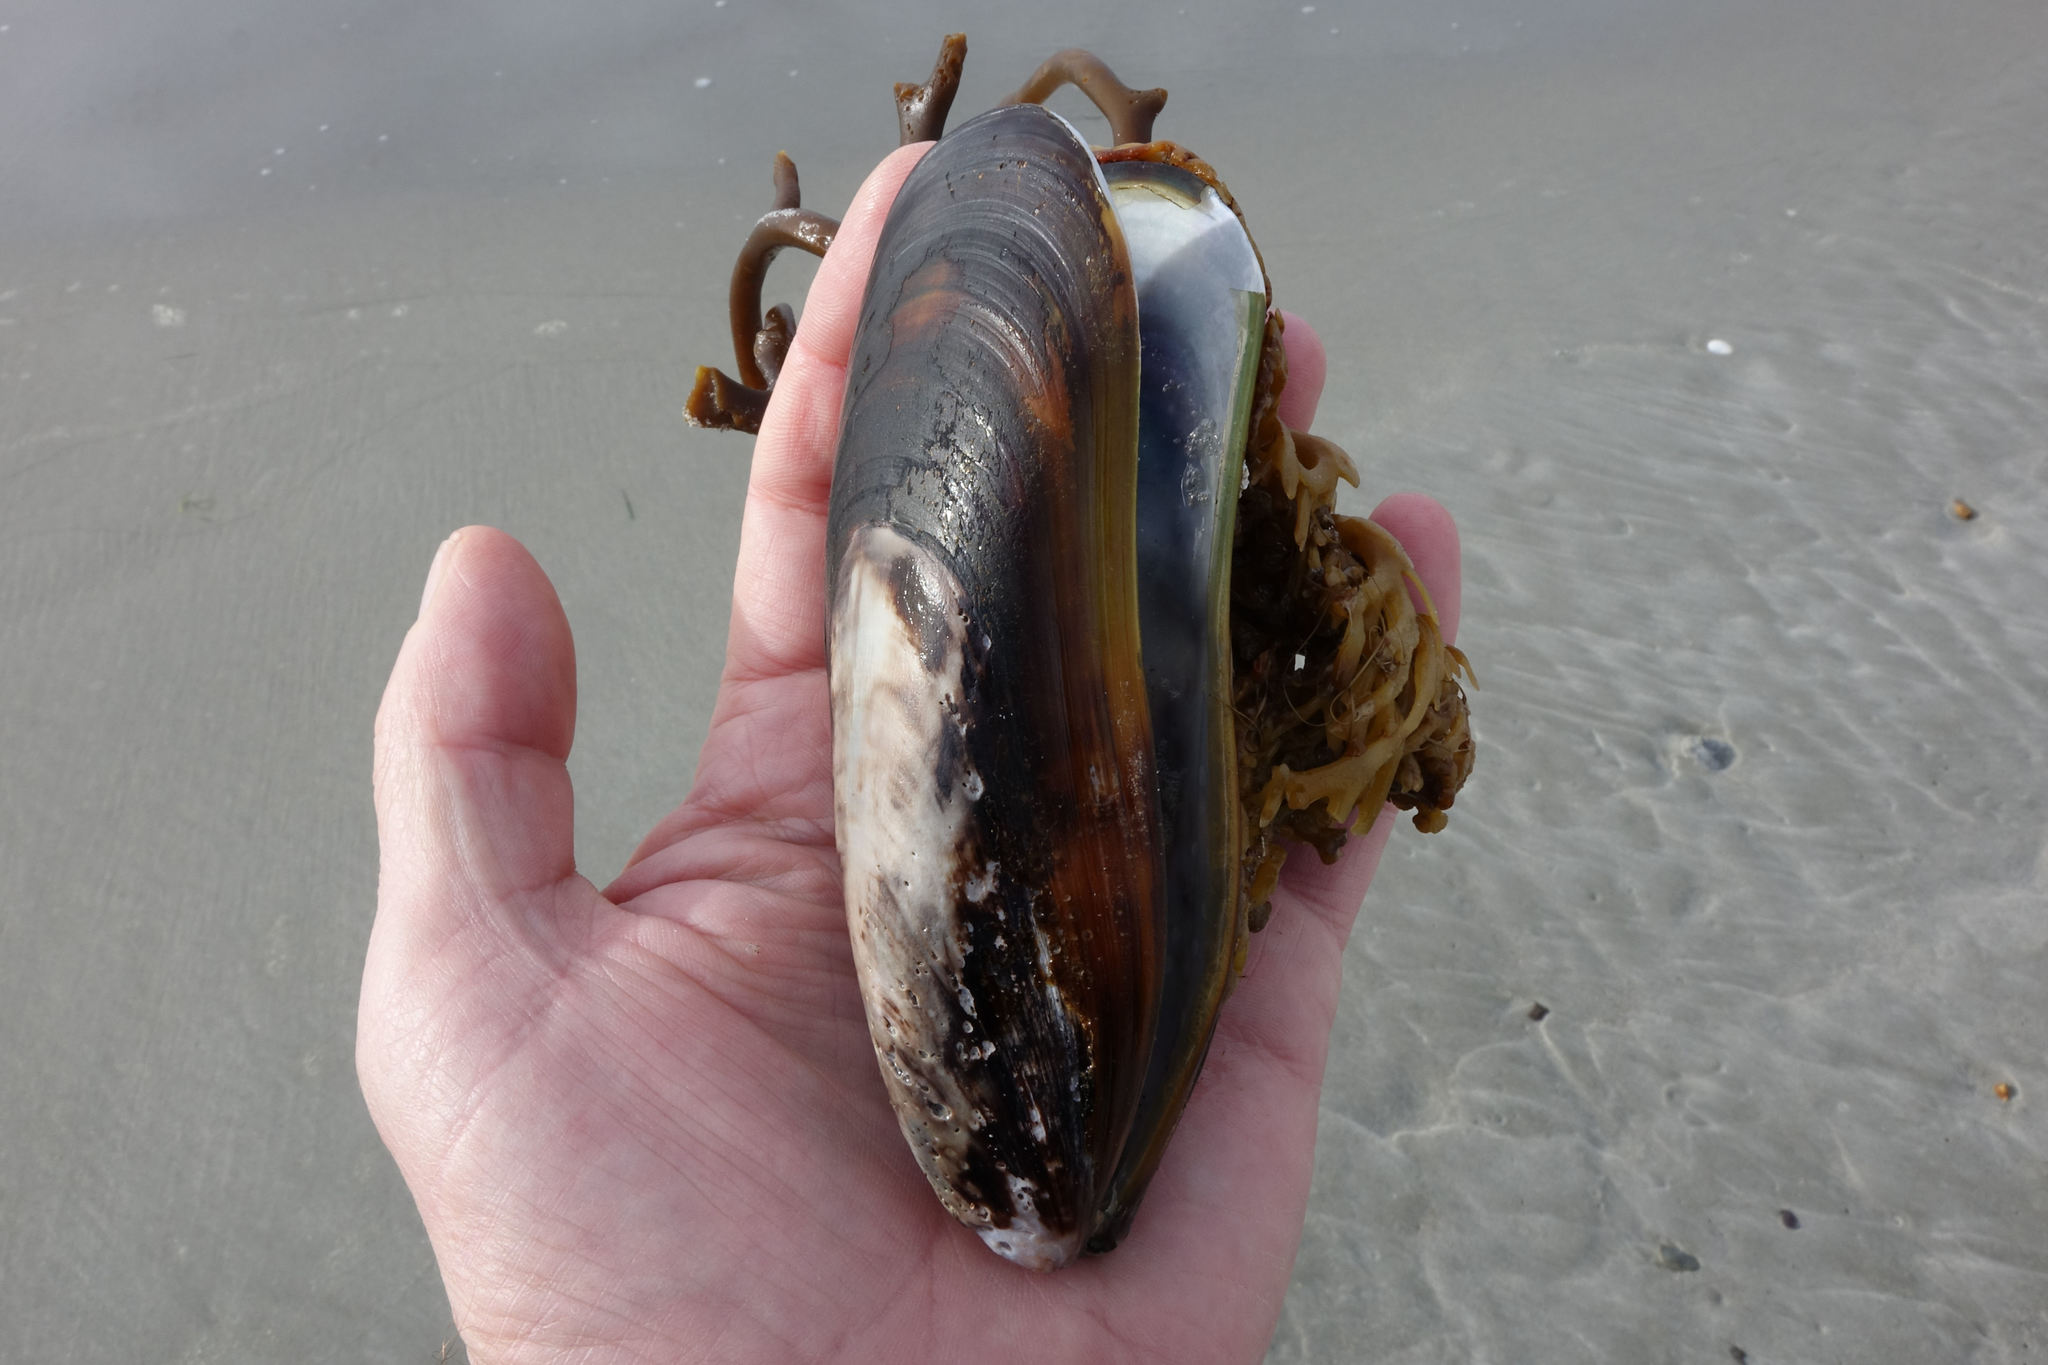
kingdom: Animalia
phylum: Mollusca
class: Bivalvia
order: Mytilida
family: Mytilidae
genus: Perna
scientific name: Perna canaliculus
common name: New zealand greenshelltm
